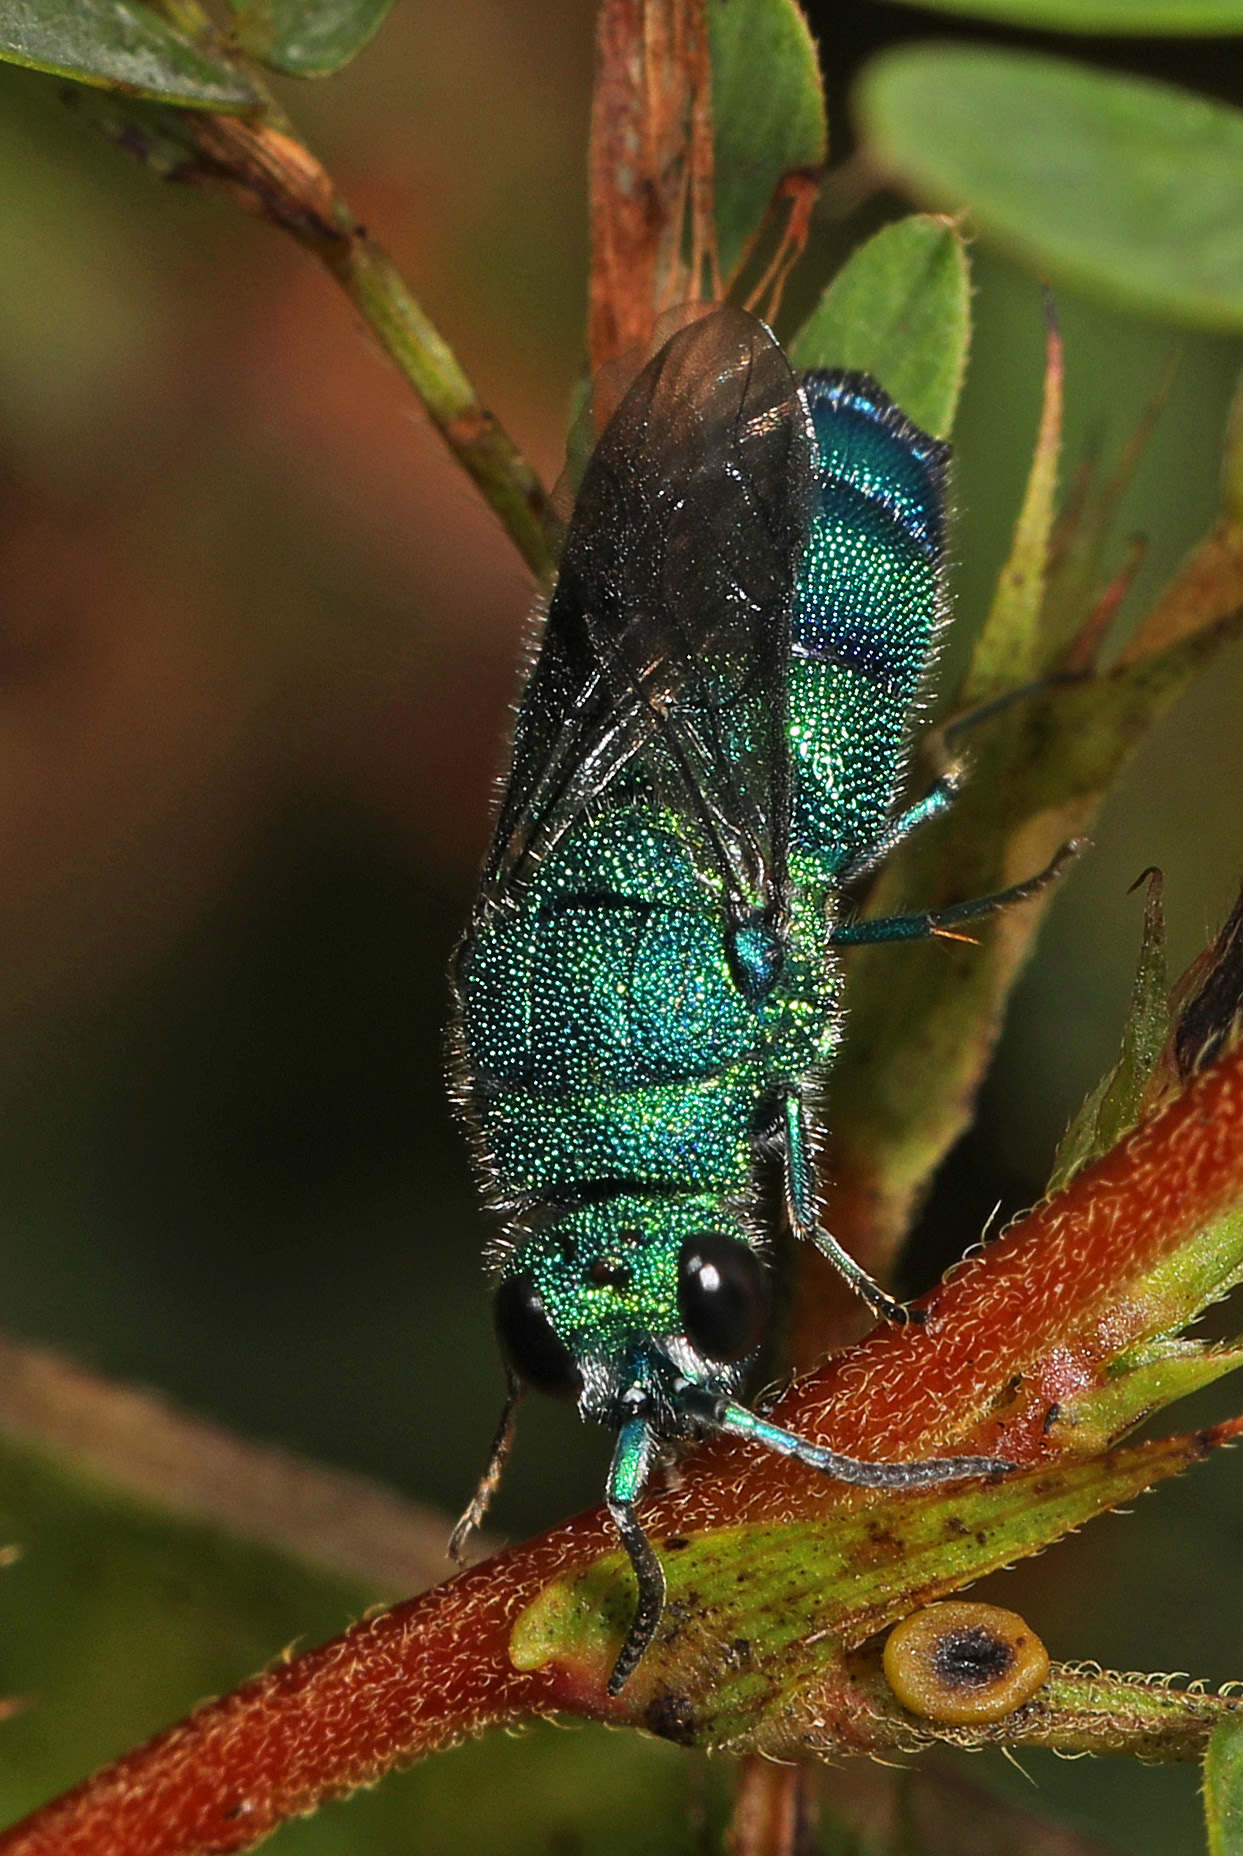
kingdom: Animalia
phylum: Arthropoda
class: Insecta
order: Hymenoptera
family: Chrysididae
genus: Chrysis
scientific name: Chrysis conica
